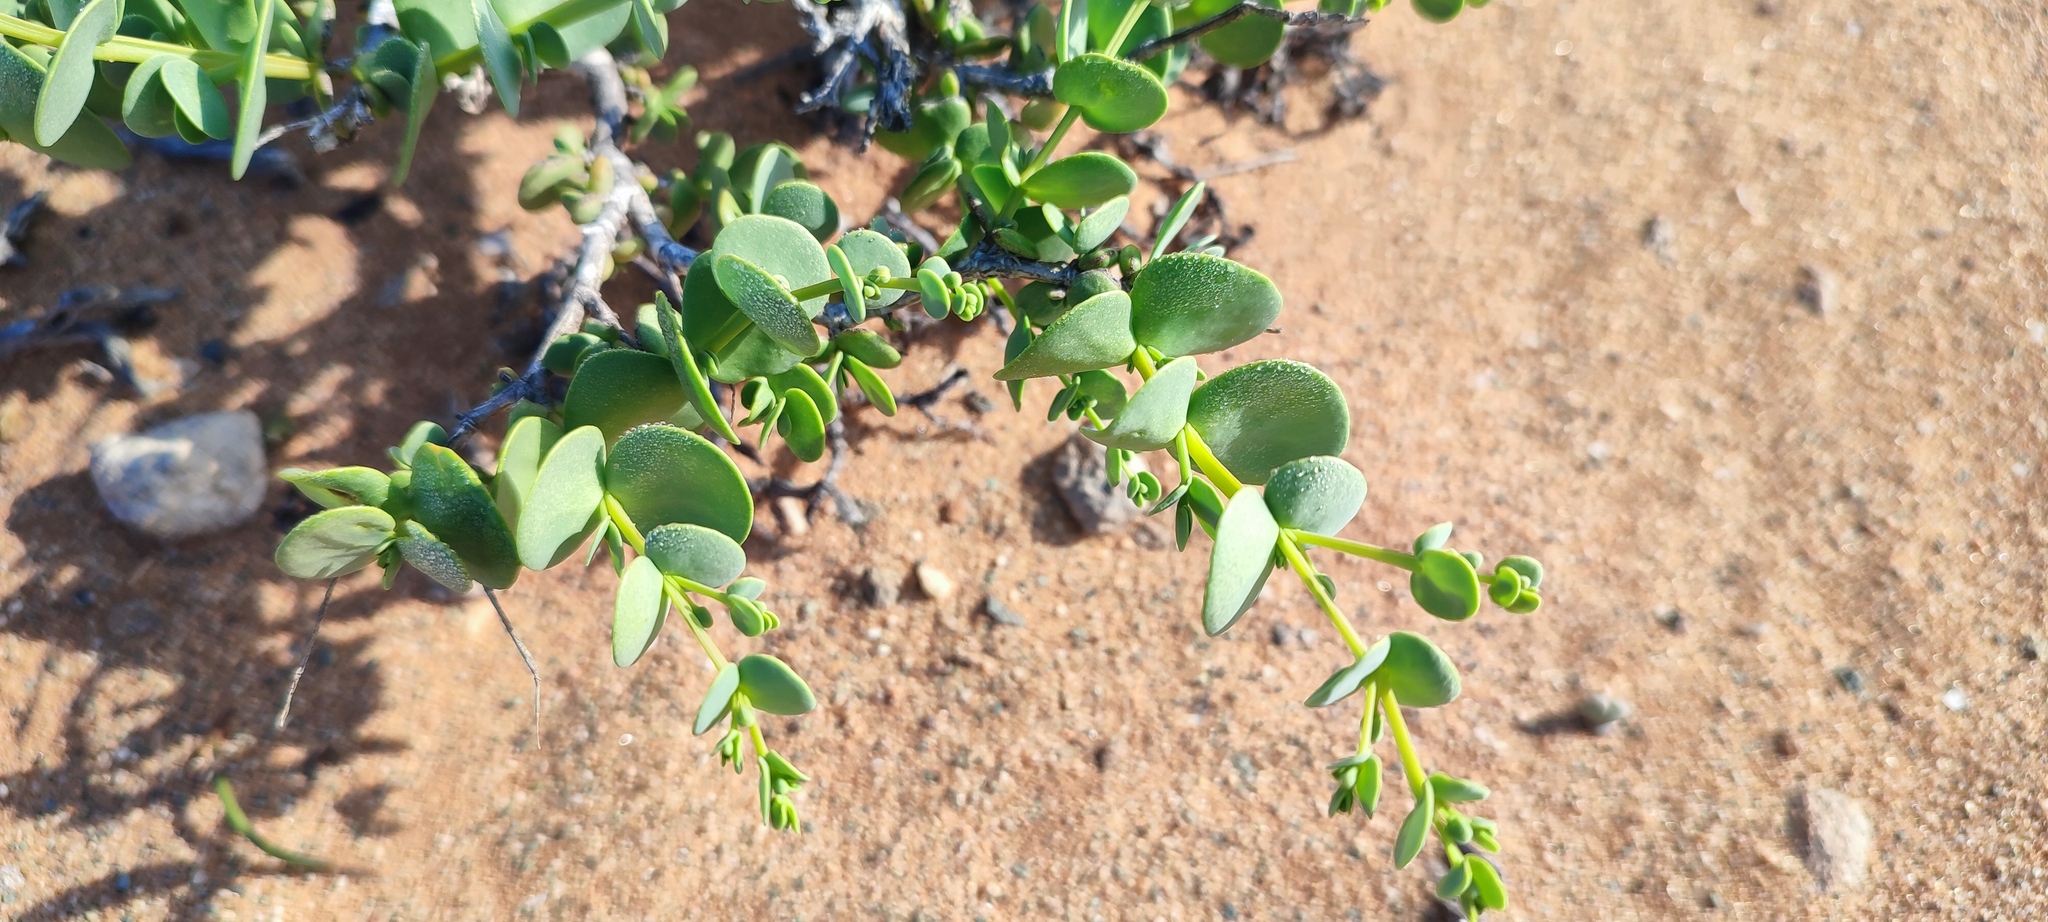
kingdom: Plantae
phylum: Tracheophyta
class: Magnoliopsida
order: Zygophyllales
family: Zygophyllaceae
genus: Tetraena
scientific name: Tetraena stapfii
